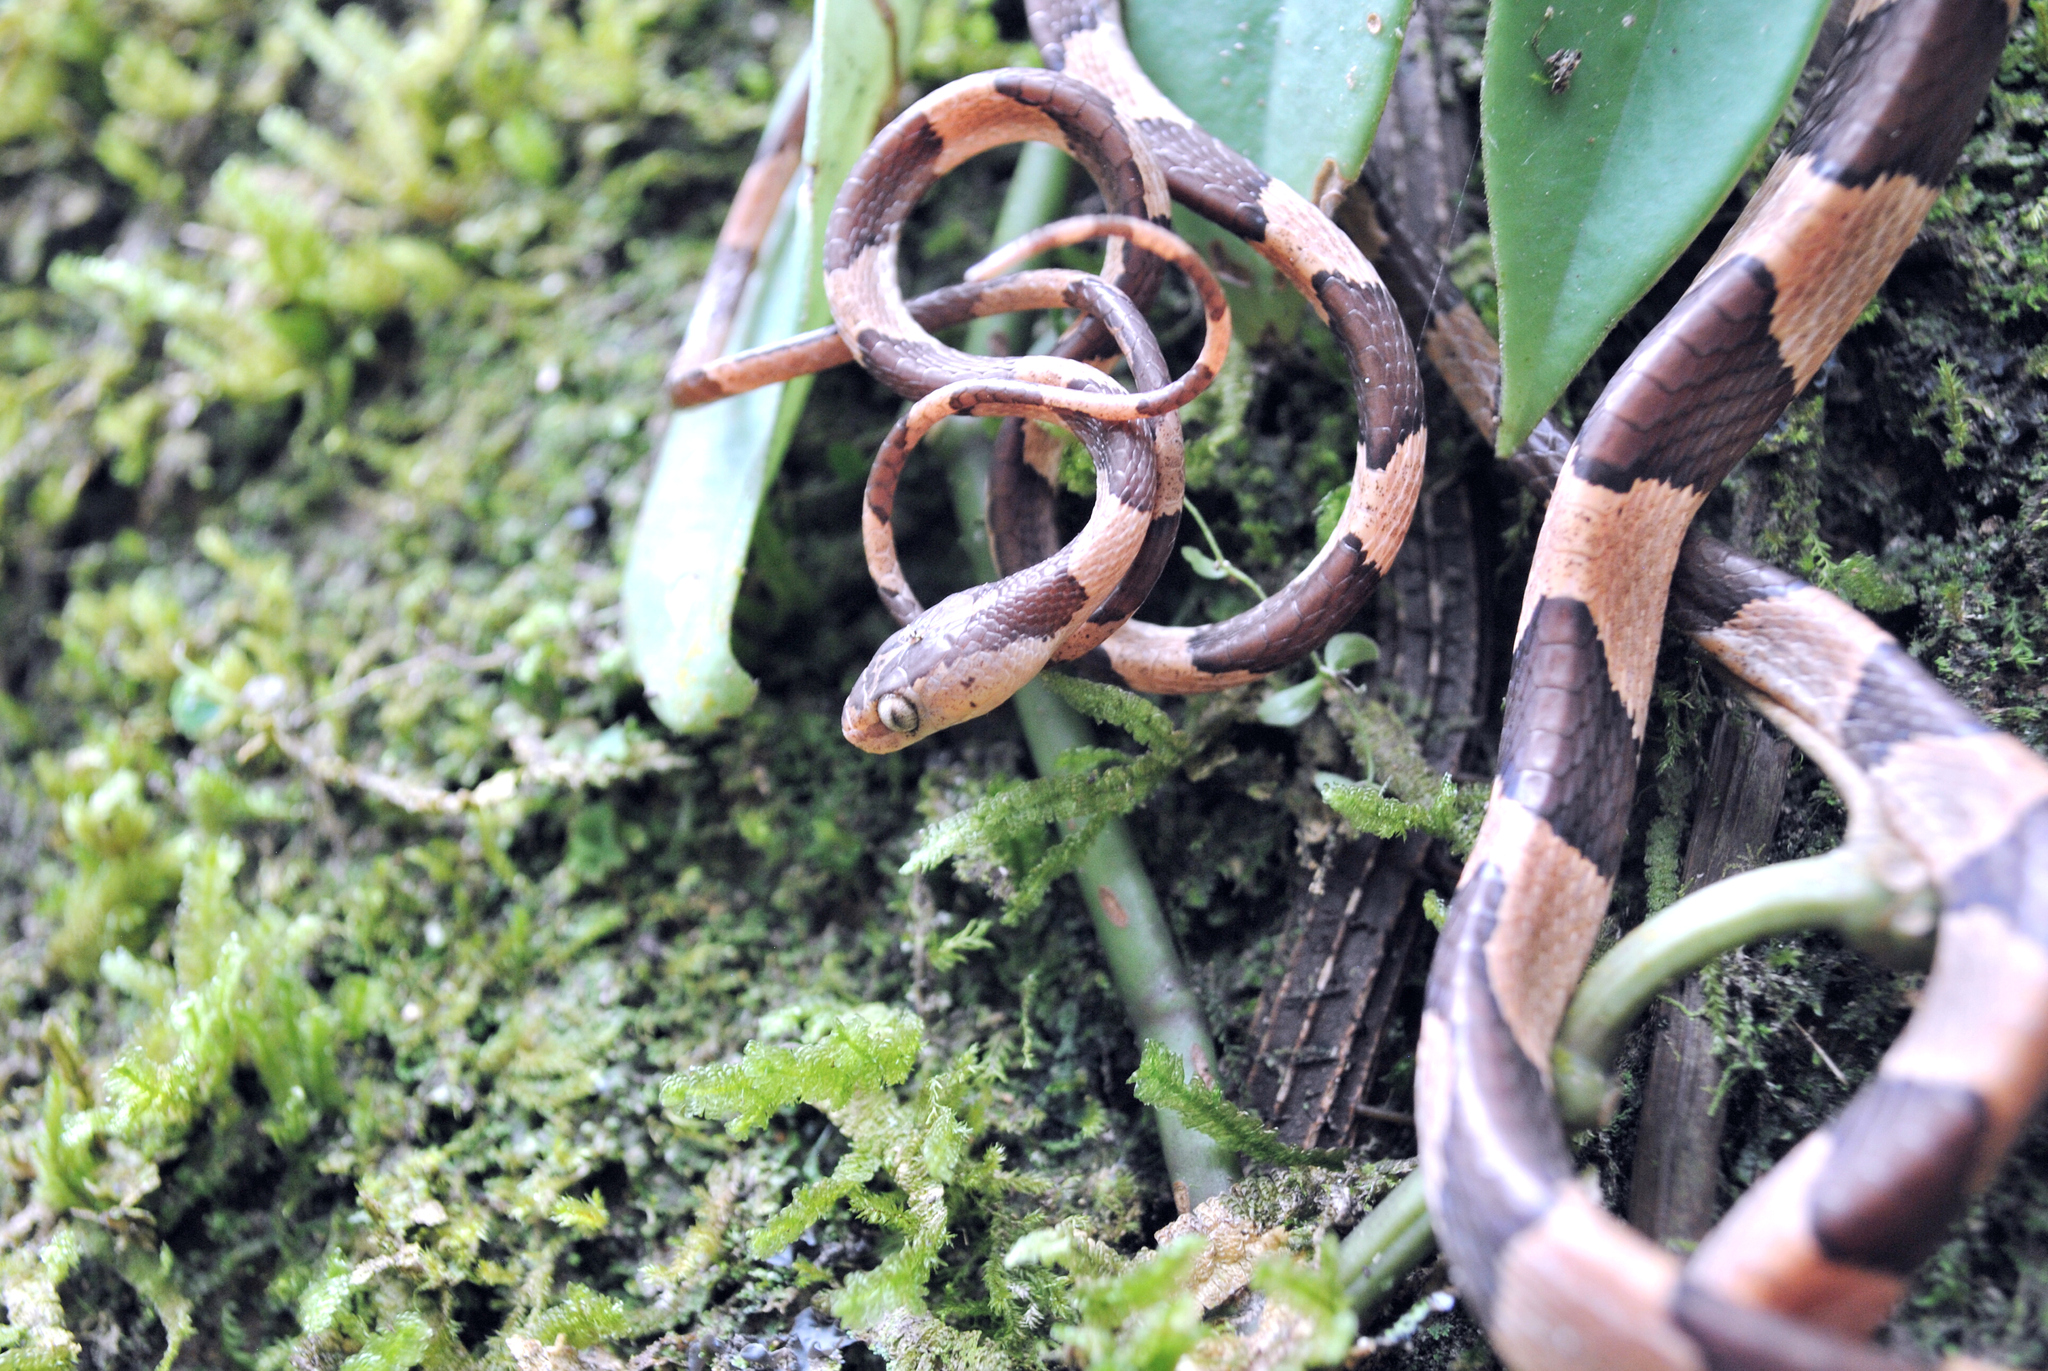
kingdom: Animalia
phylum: Chordata
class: Squamata
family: Colubridae
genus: Imantodes
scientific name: Imantodes cenchoa
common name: Blunthead tree snake
